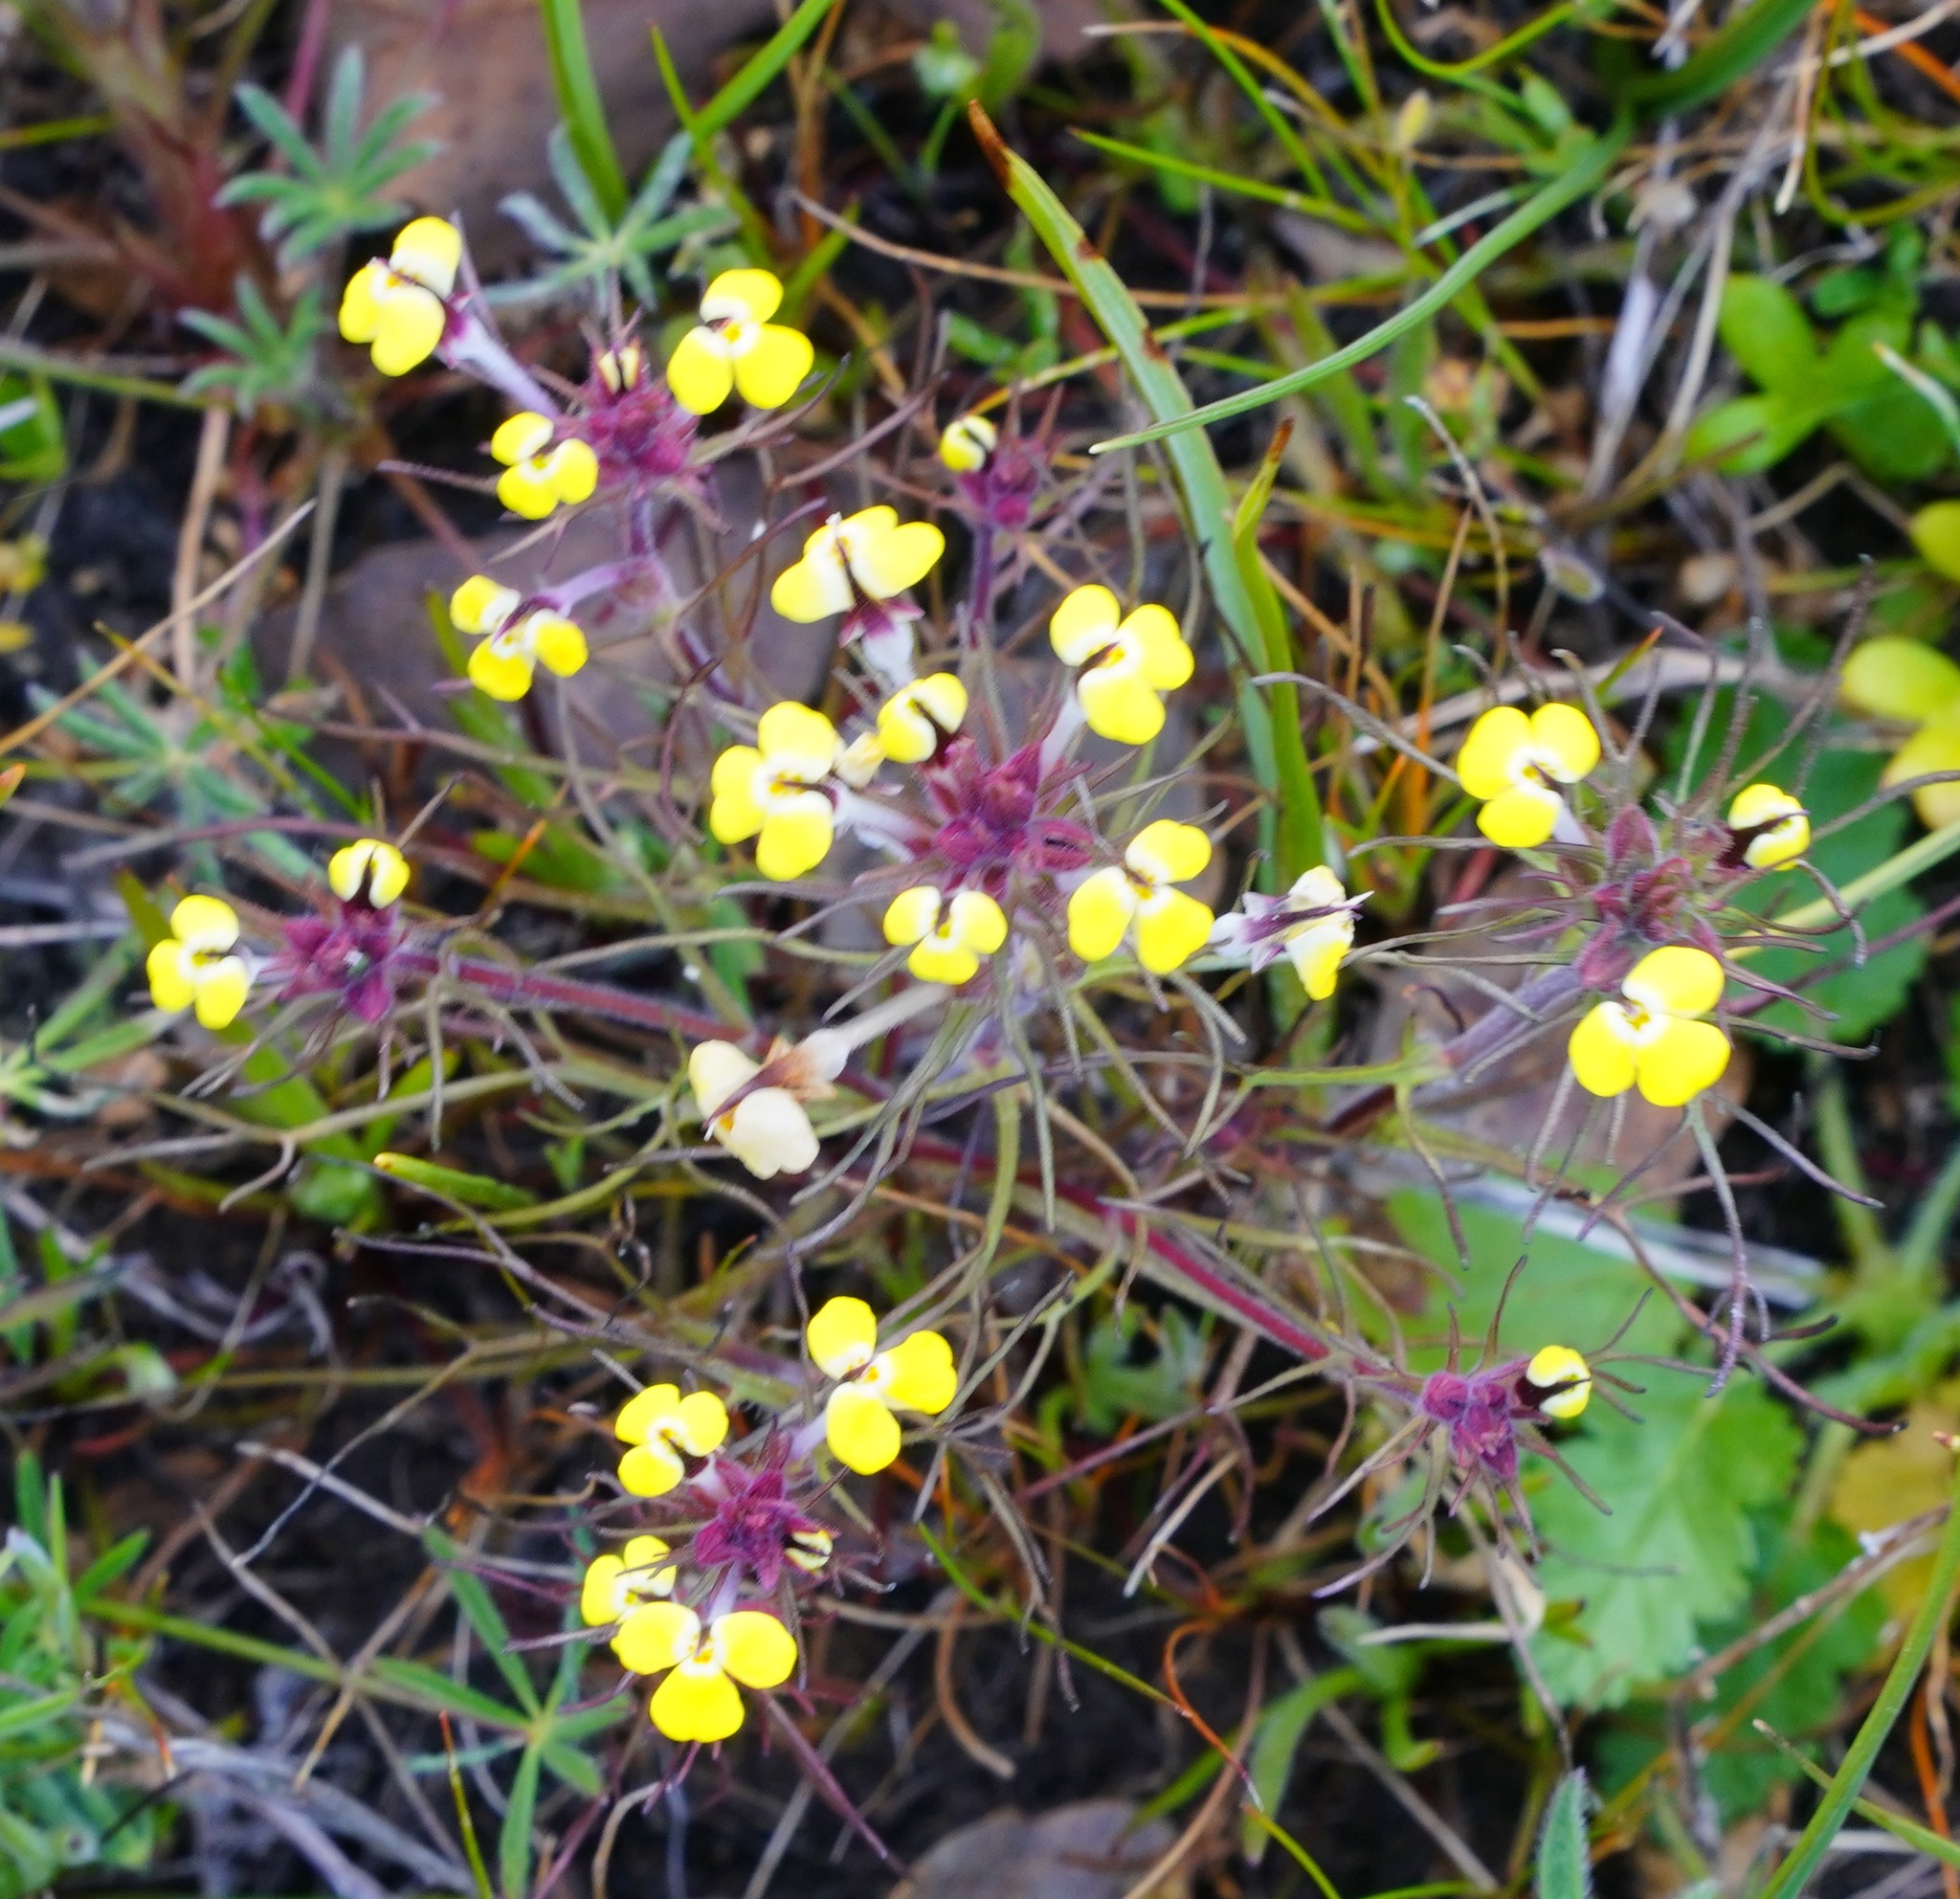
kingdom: Plantae
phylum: Tracheophyta
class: Magnoliopsida
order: Lamiales
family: Orobanchaceae
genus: Triphysaria
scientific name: Triphysaria eriantha
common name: Johnny-tuck
